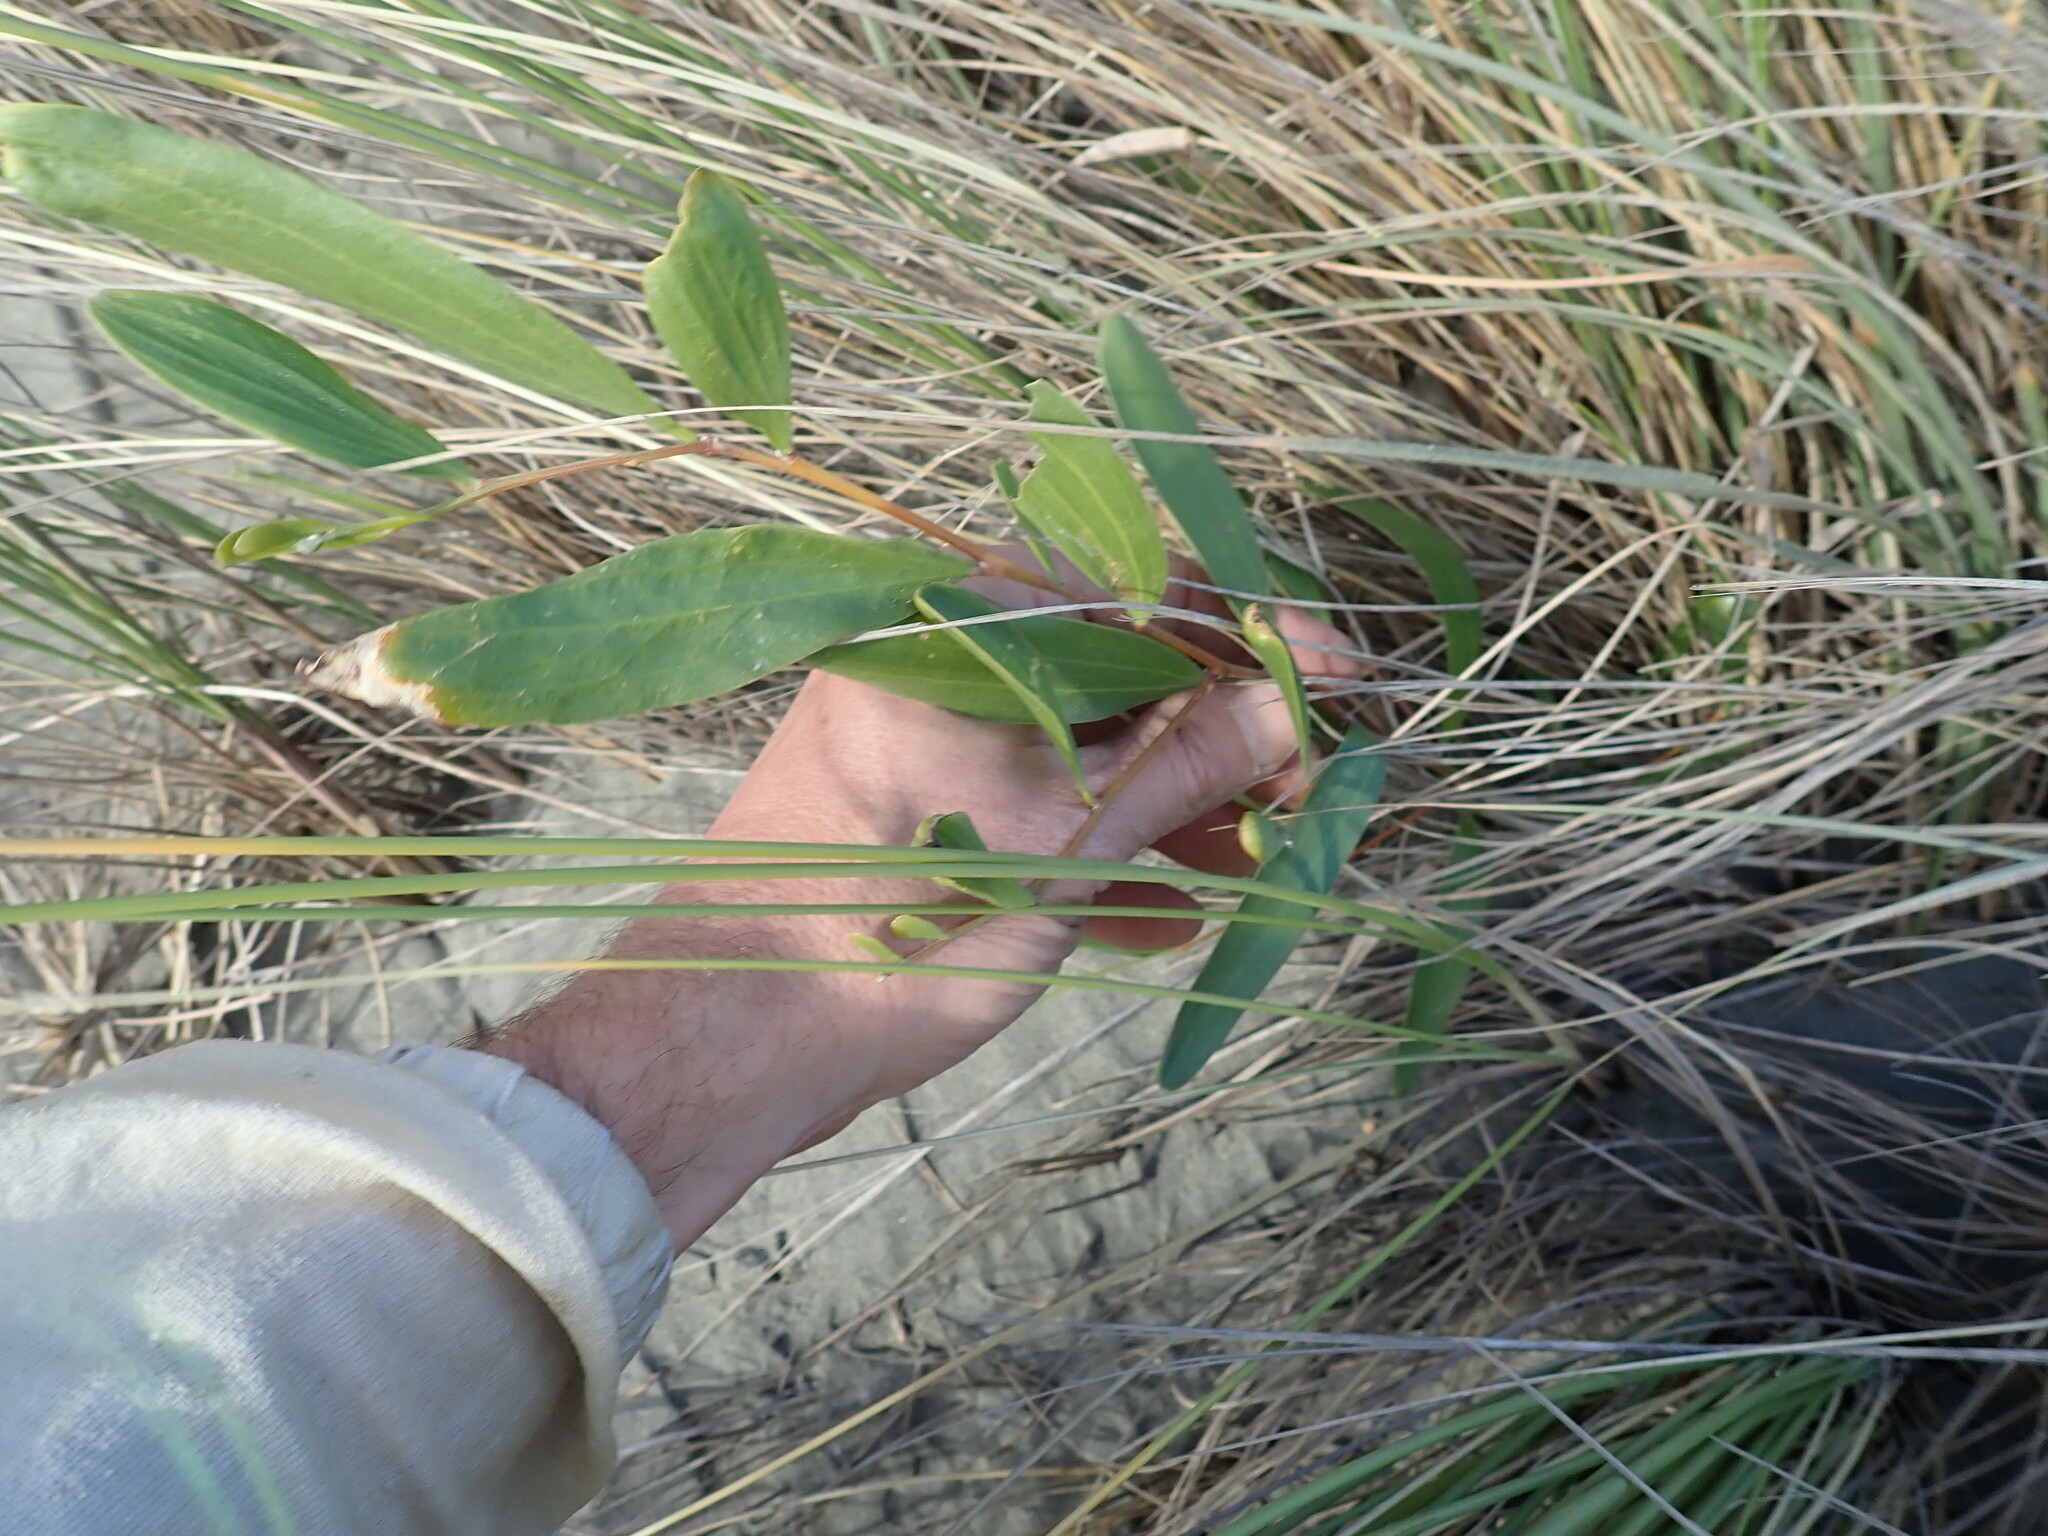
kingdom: Plantae
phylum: Tracheophyta
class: Magnoliopsida
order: Fabales
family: Fabaceae
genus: Acacia
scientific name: Acacia longifolia
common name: Sydney golden wattle
